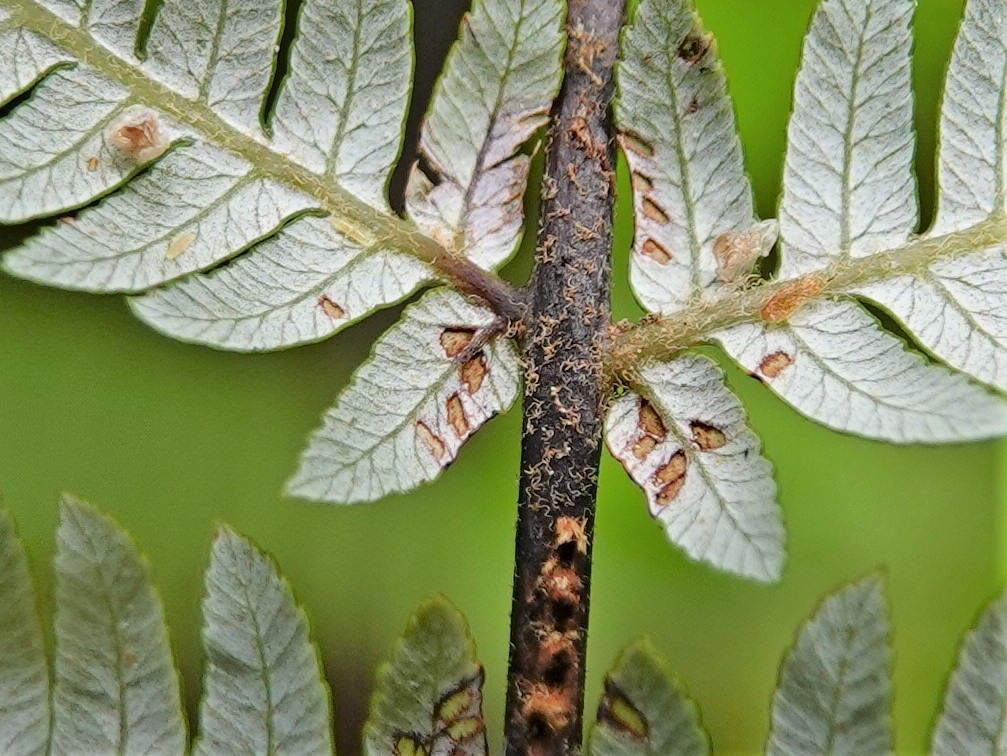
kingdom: Plantae
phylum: Tracheophyta
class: Polypodiopsida
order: Cyatheales
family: Cyatheaceae
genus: Alsophila
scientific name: Alsophila dealbata
